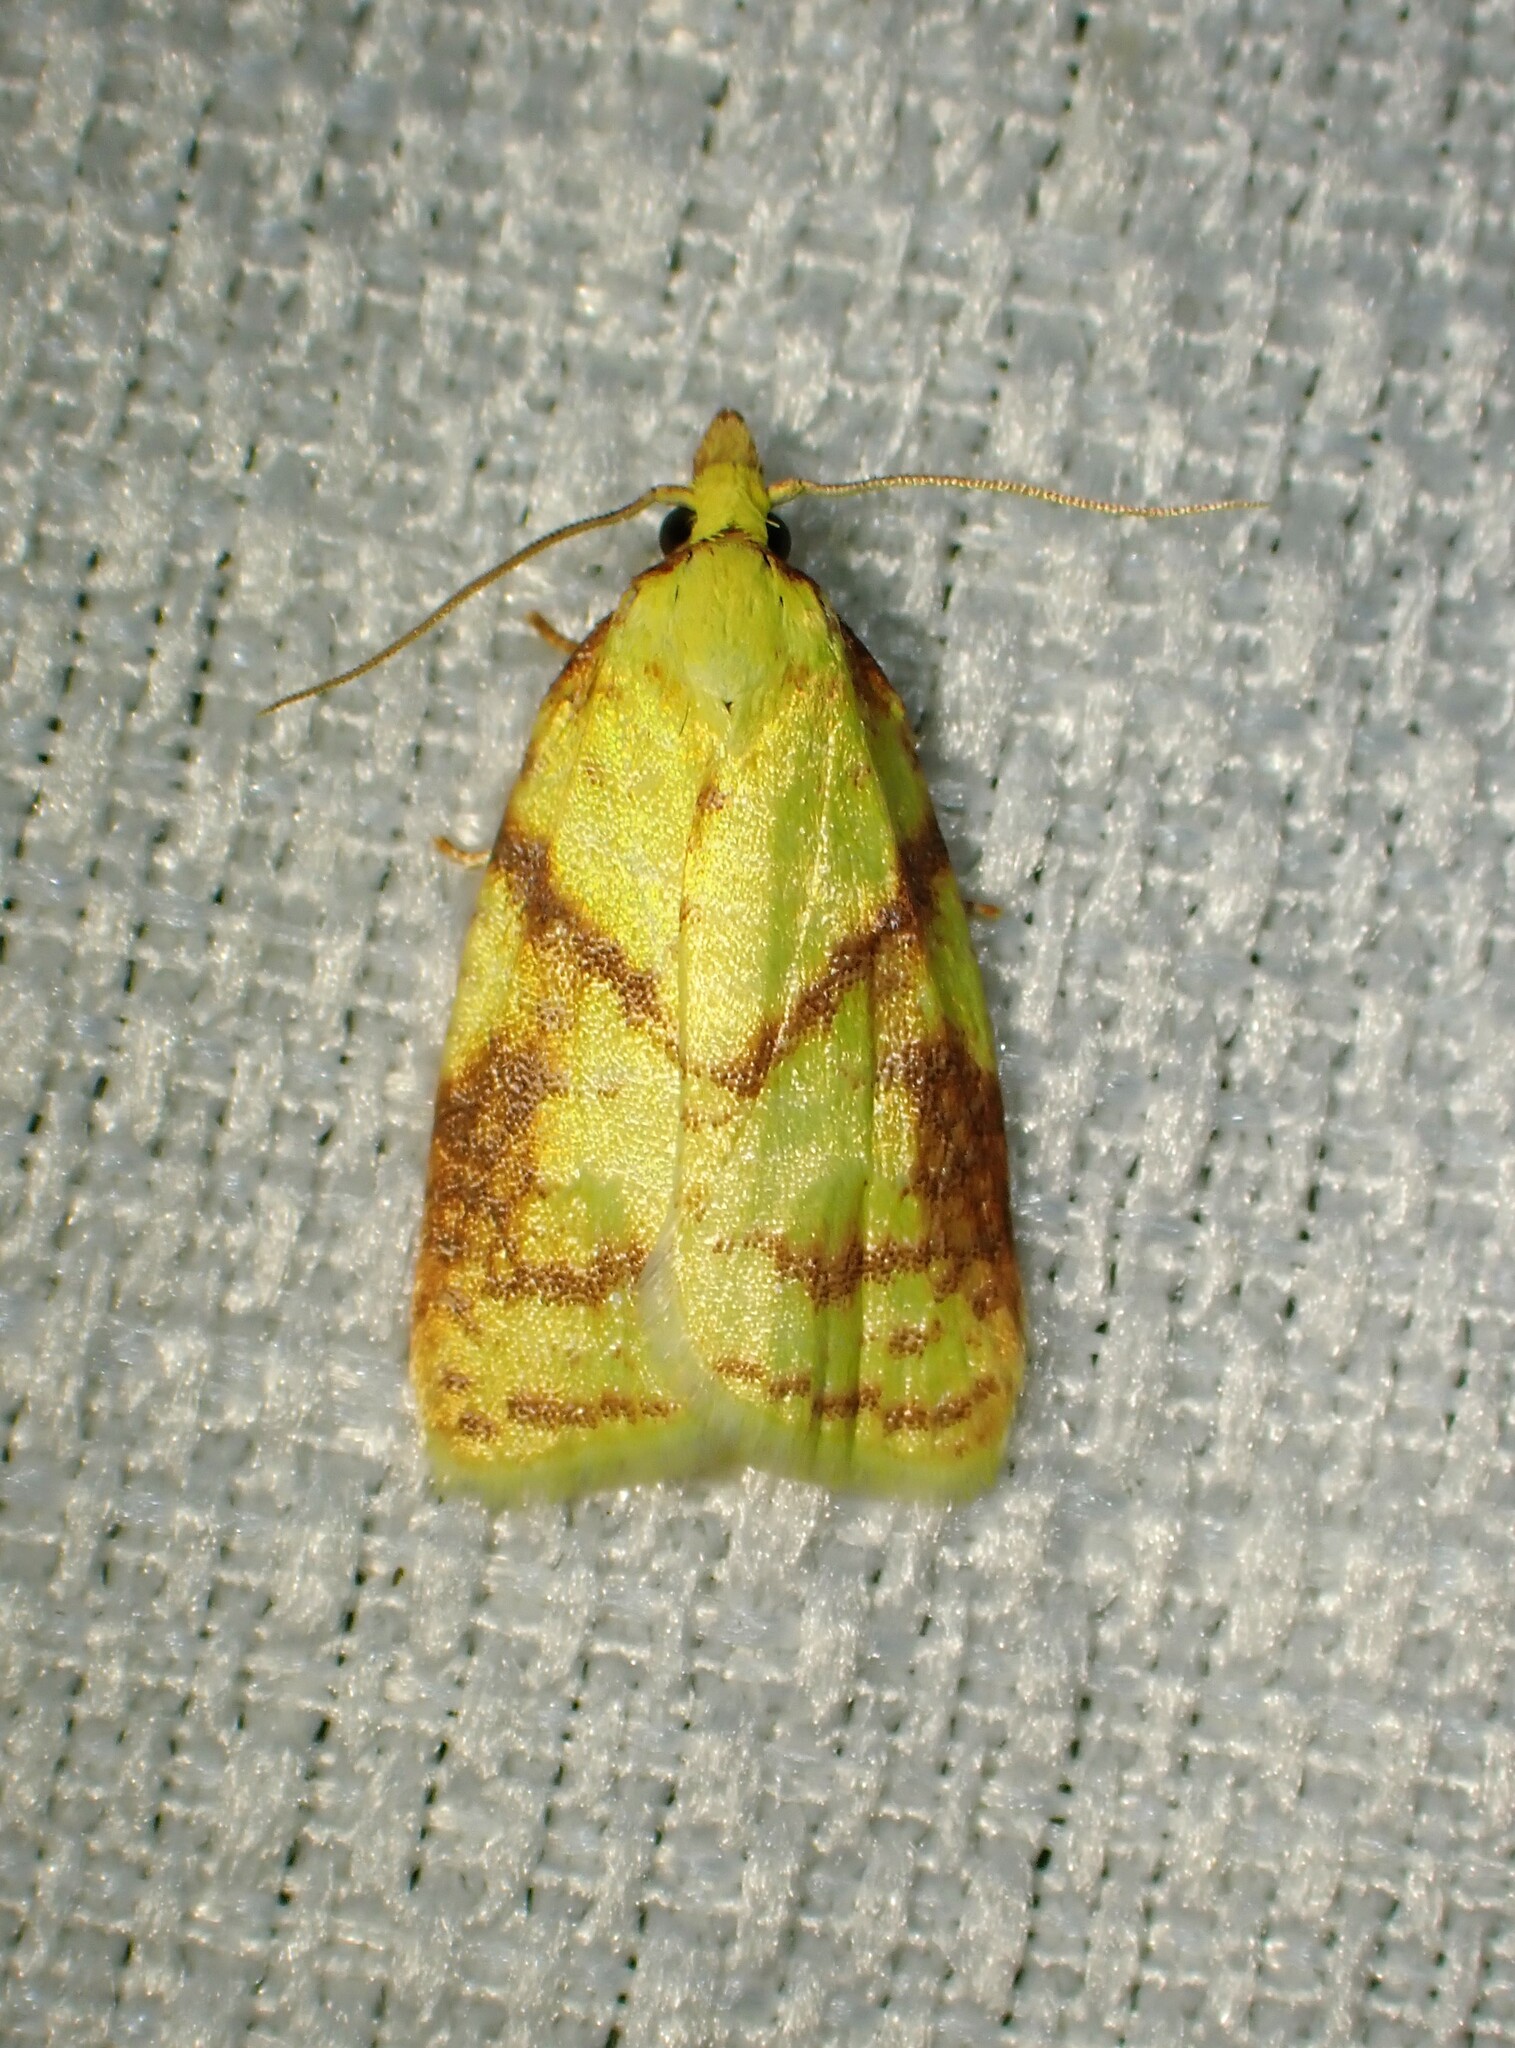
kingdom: Animalia
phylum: Arthropoda
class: Insecta
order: Lepidoptera
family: Tortricidae
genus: Cenopis
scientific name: Cenopis pettitana
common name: Maple-basswood leafroller moth
